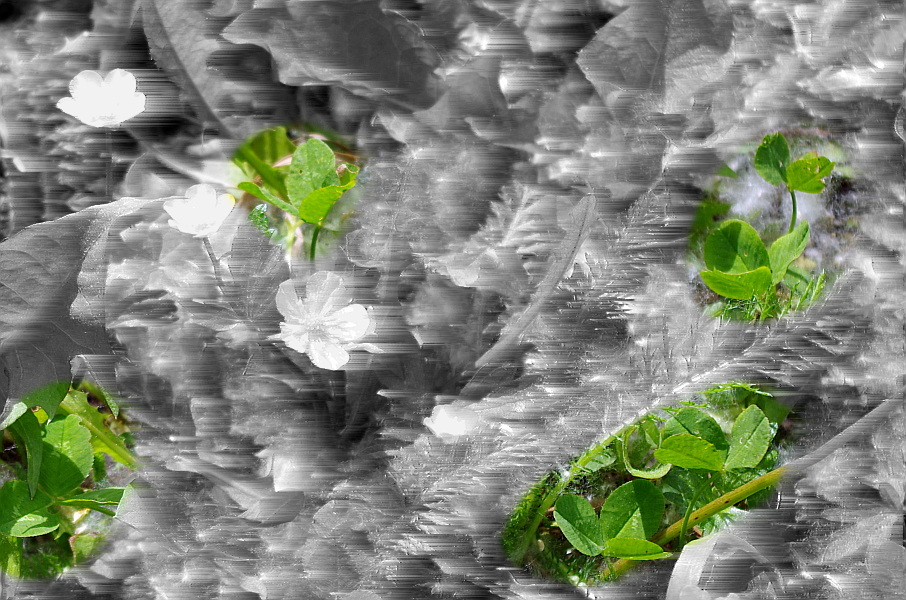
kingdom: Plantae
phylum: Tracheophyta
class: Magnoliopsida
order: Fabales
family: Fabaceae
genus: Trifolium
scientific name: Trifolium repens
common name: White clover
